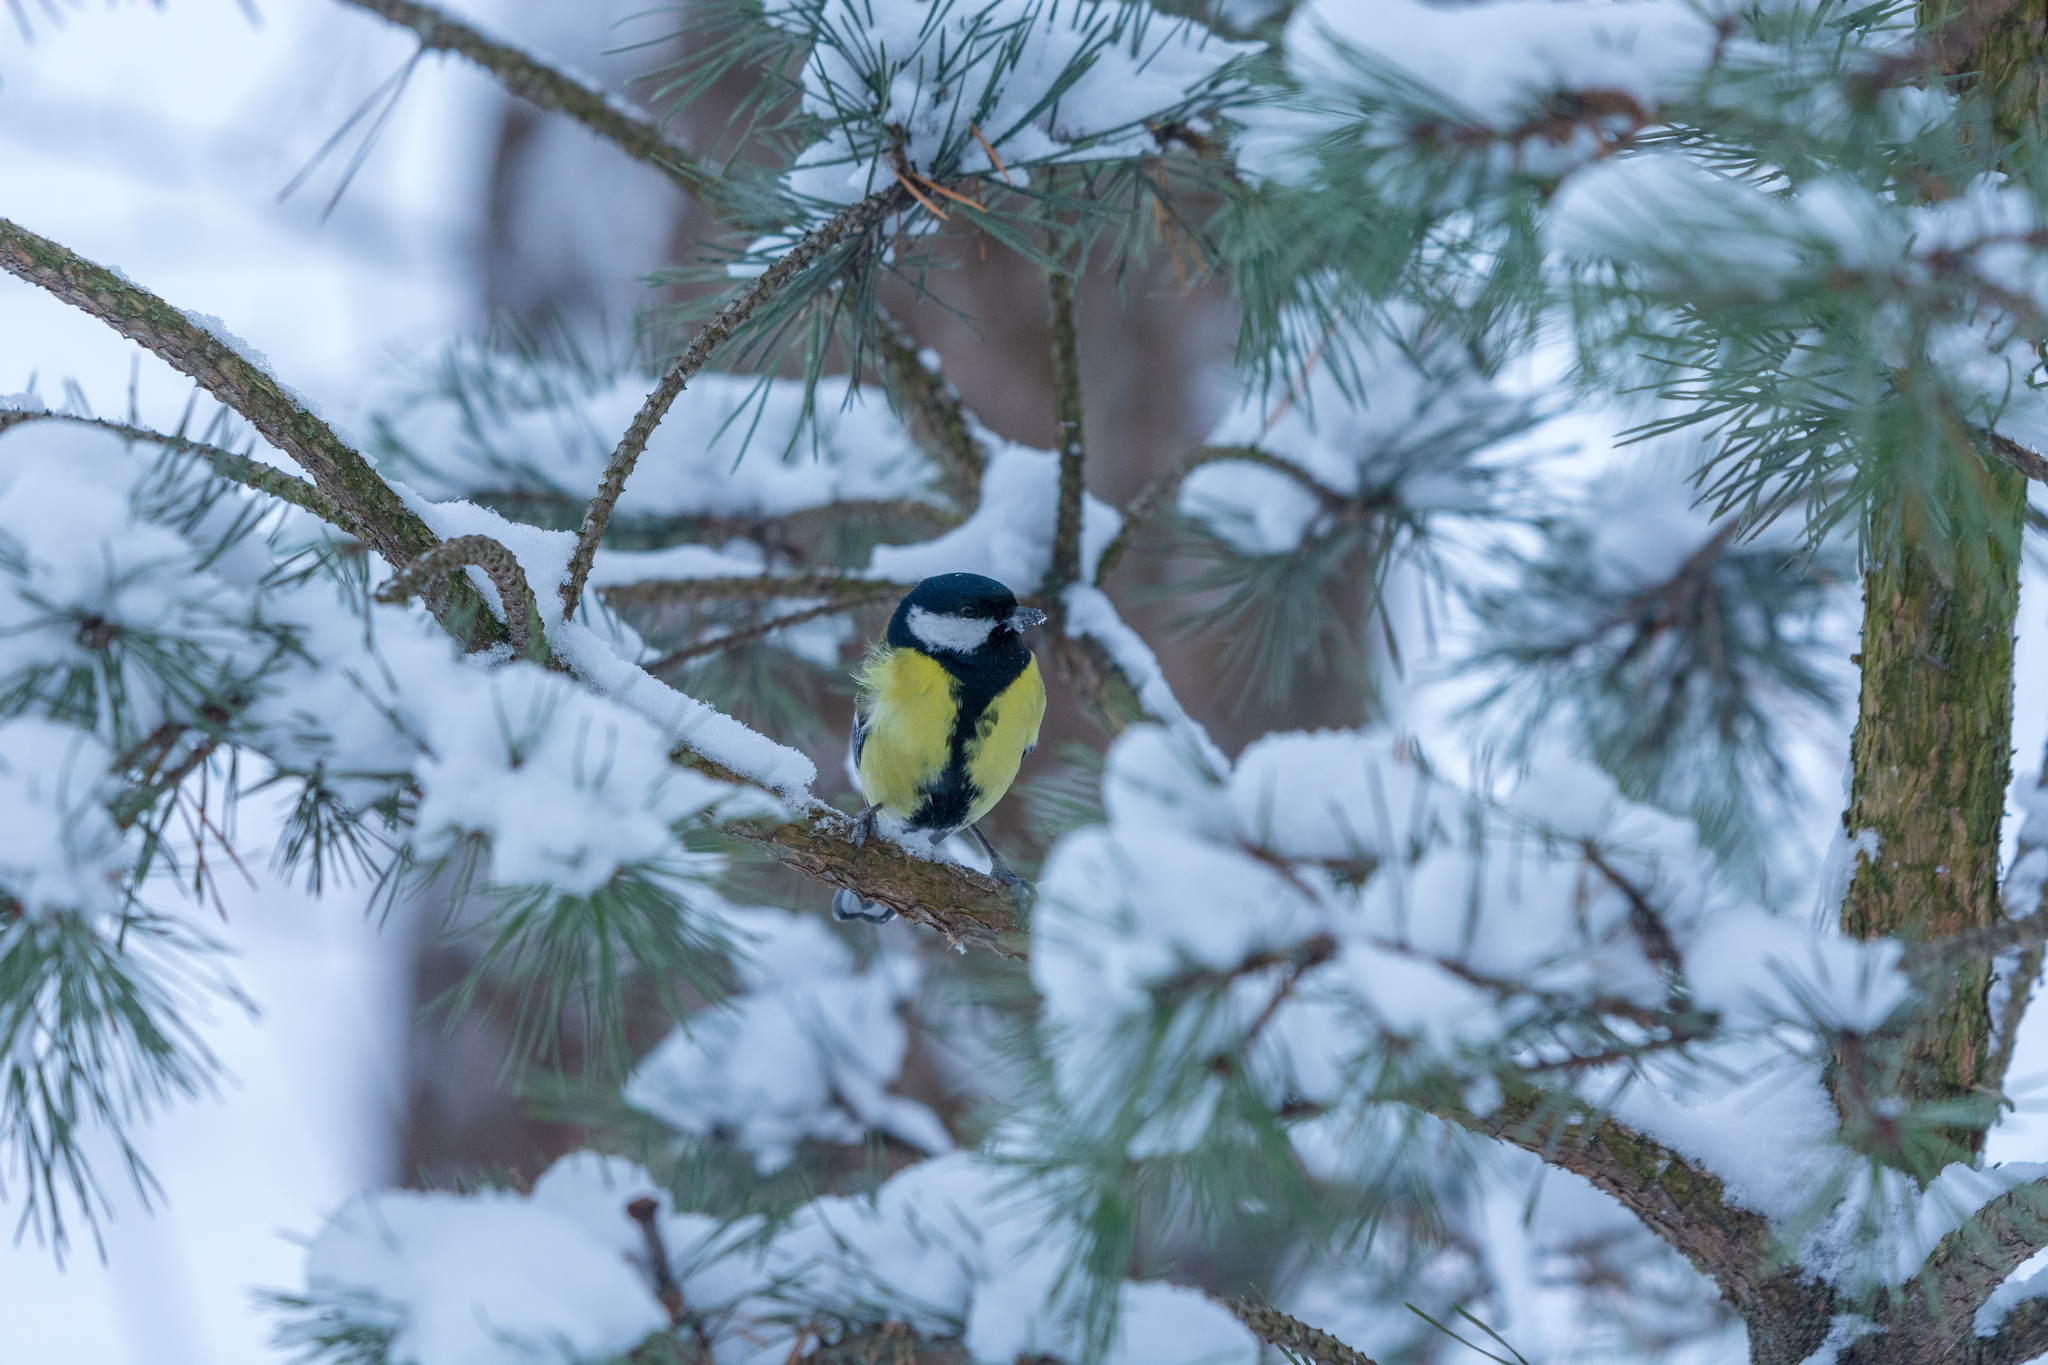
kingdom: Animalia
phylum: Chordata
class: Aves
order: Passeriformes
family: Paridae
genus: Parus
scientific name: Parus major
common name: Great tit
